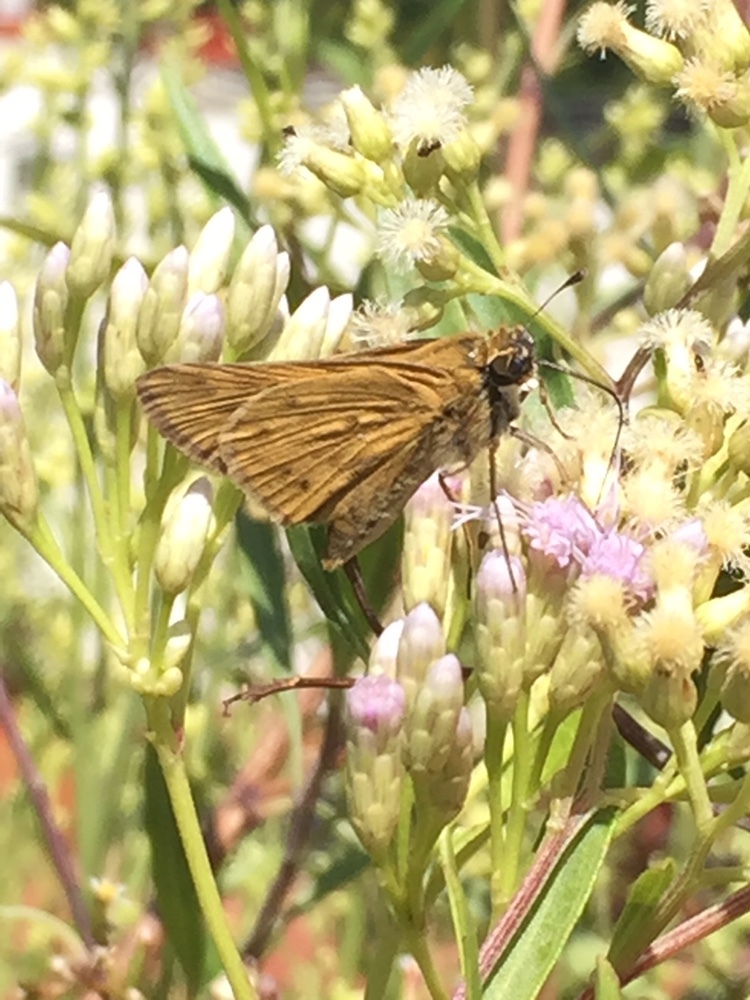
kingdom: Animalia
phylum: Arthropoda
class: Insecta
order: Lepidoptera
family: Hesperiidae
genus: Hylephila
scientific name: Hylephila phyleus
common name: Fiery skipper
